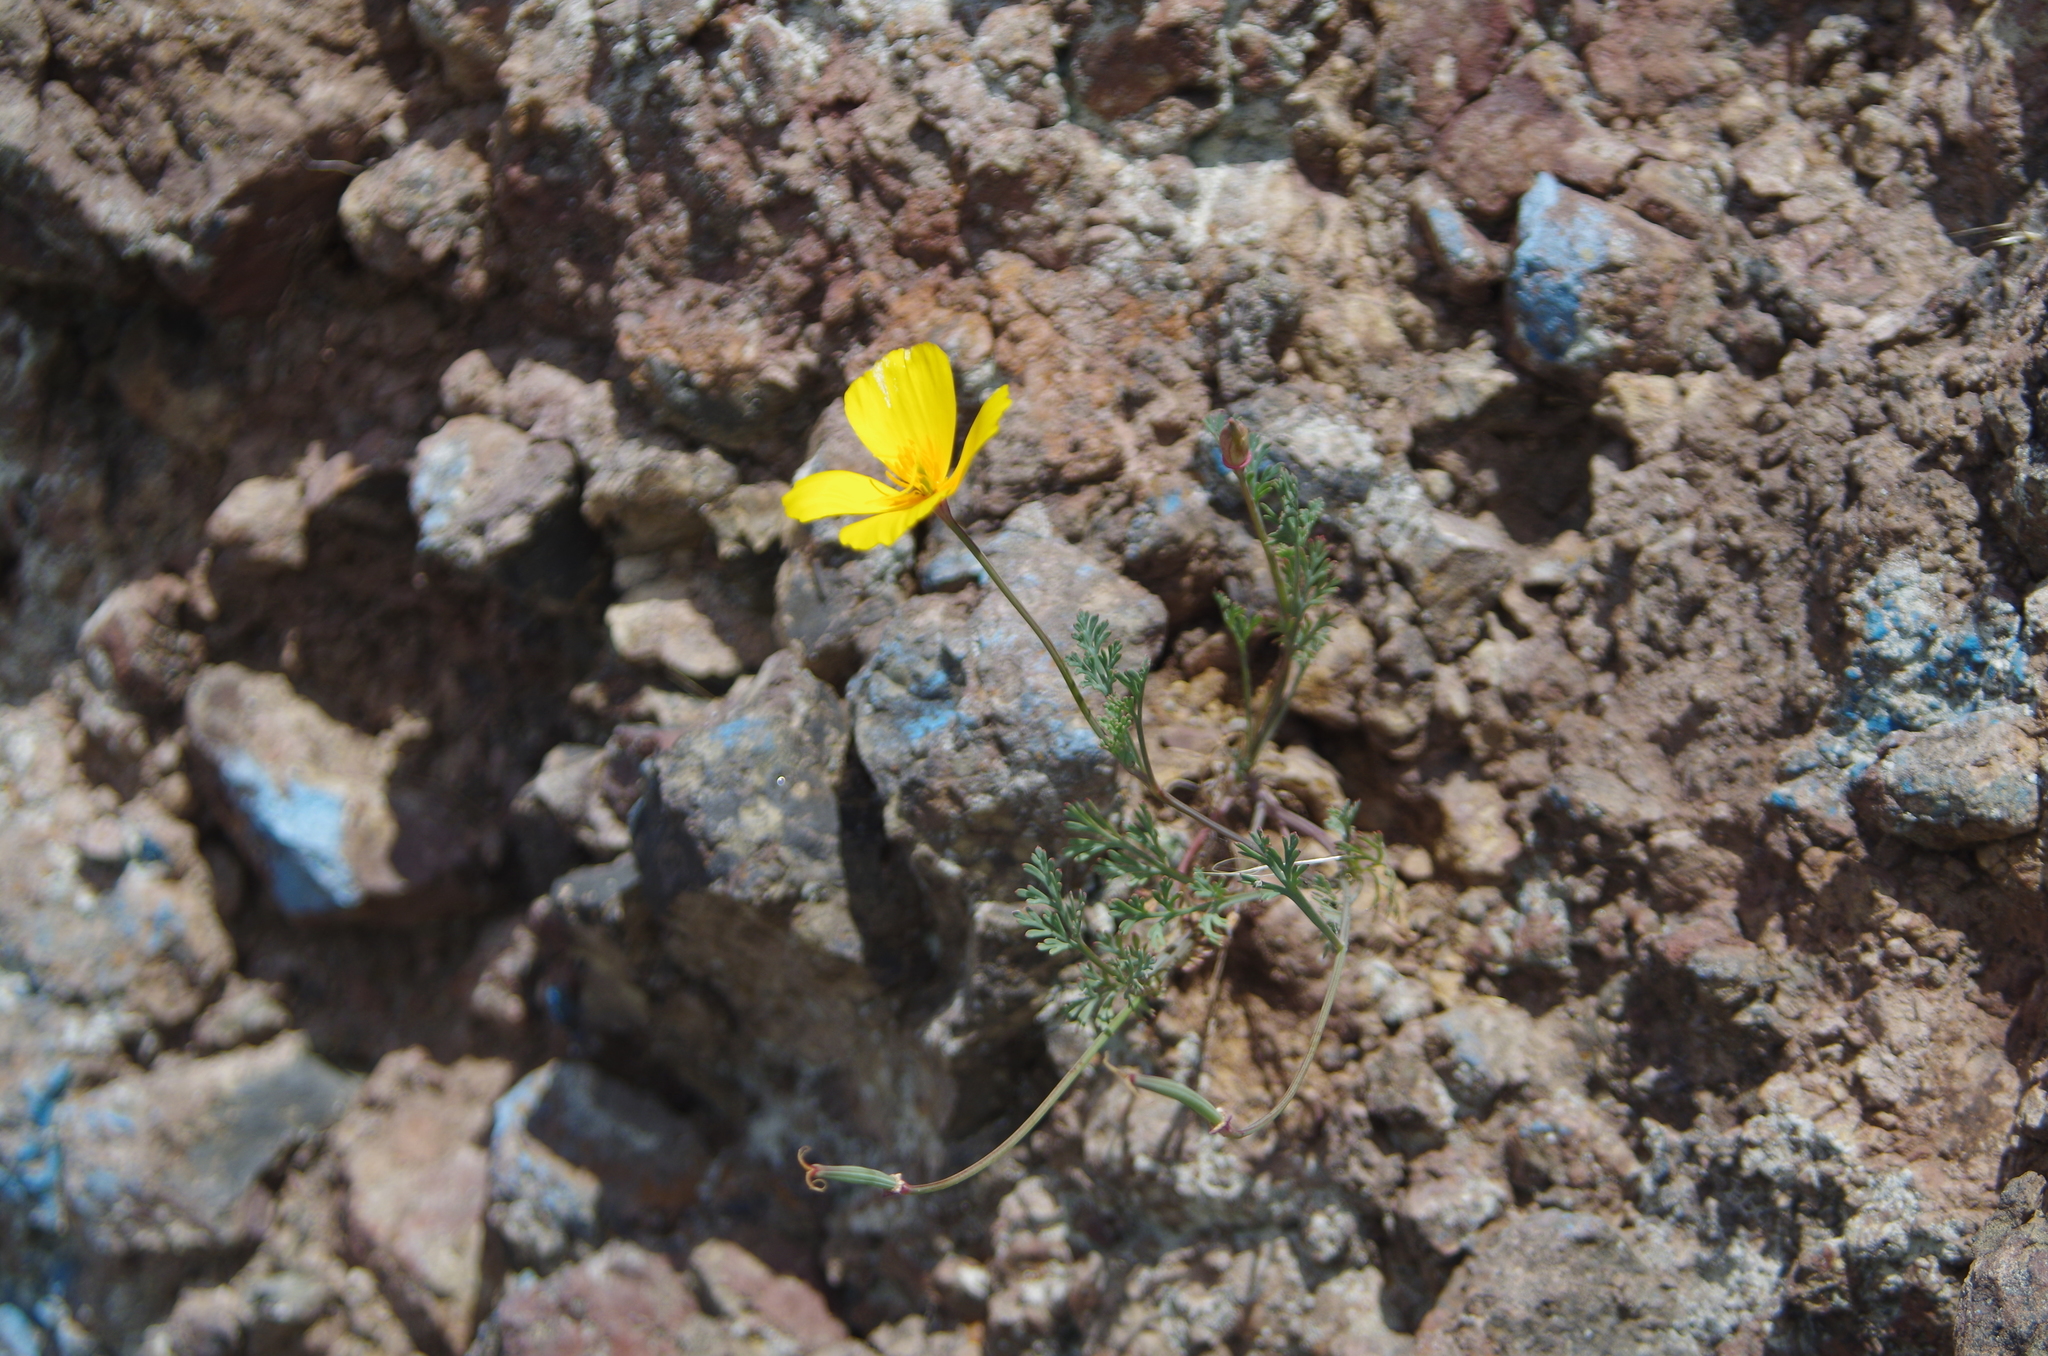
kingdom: Plantae
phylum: Tracheophyta
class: Magnoliopsida
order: Ranunculales
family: Papaveraceae
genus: Eschscholzia
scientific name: Eschscholzia californica
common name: California poppy
